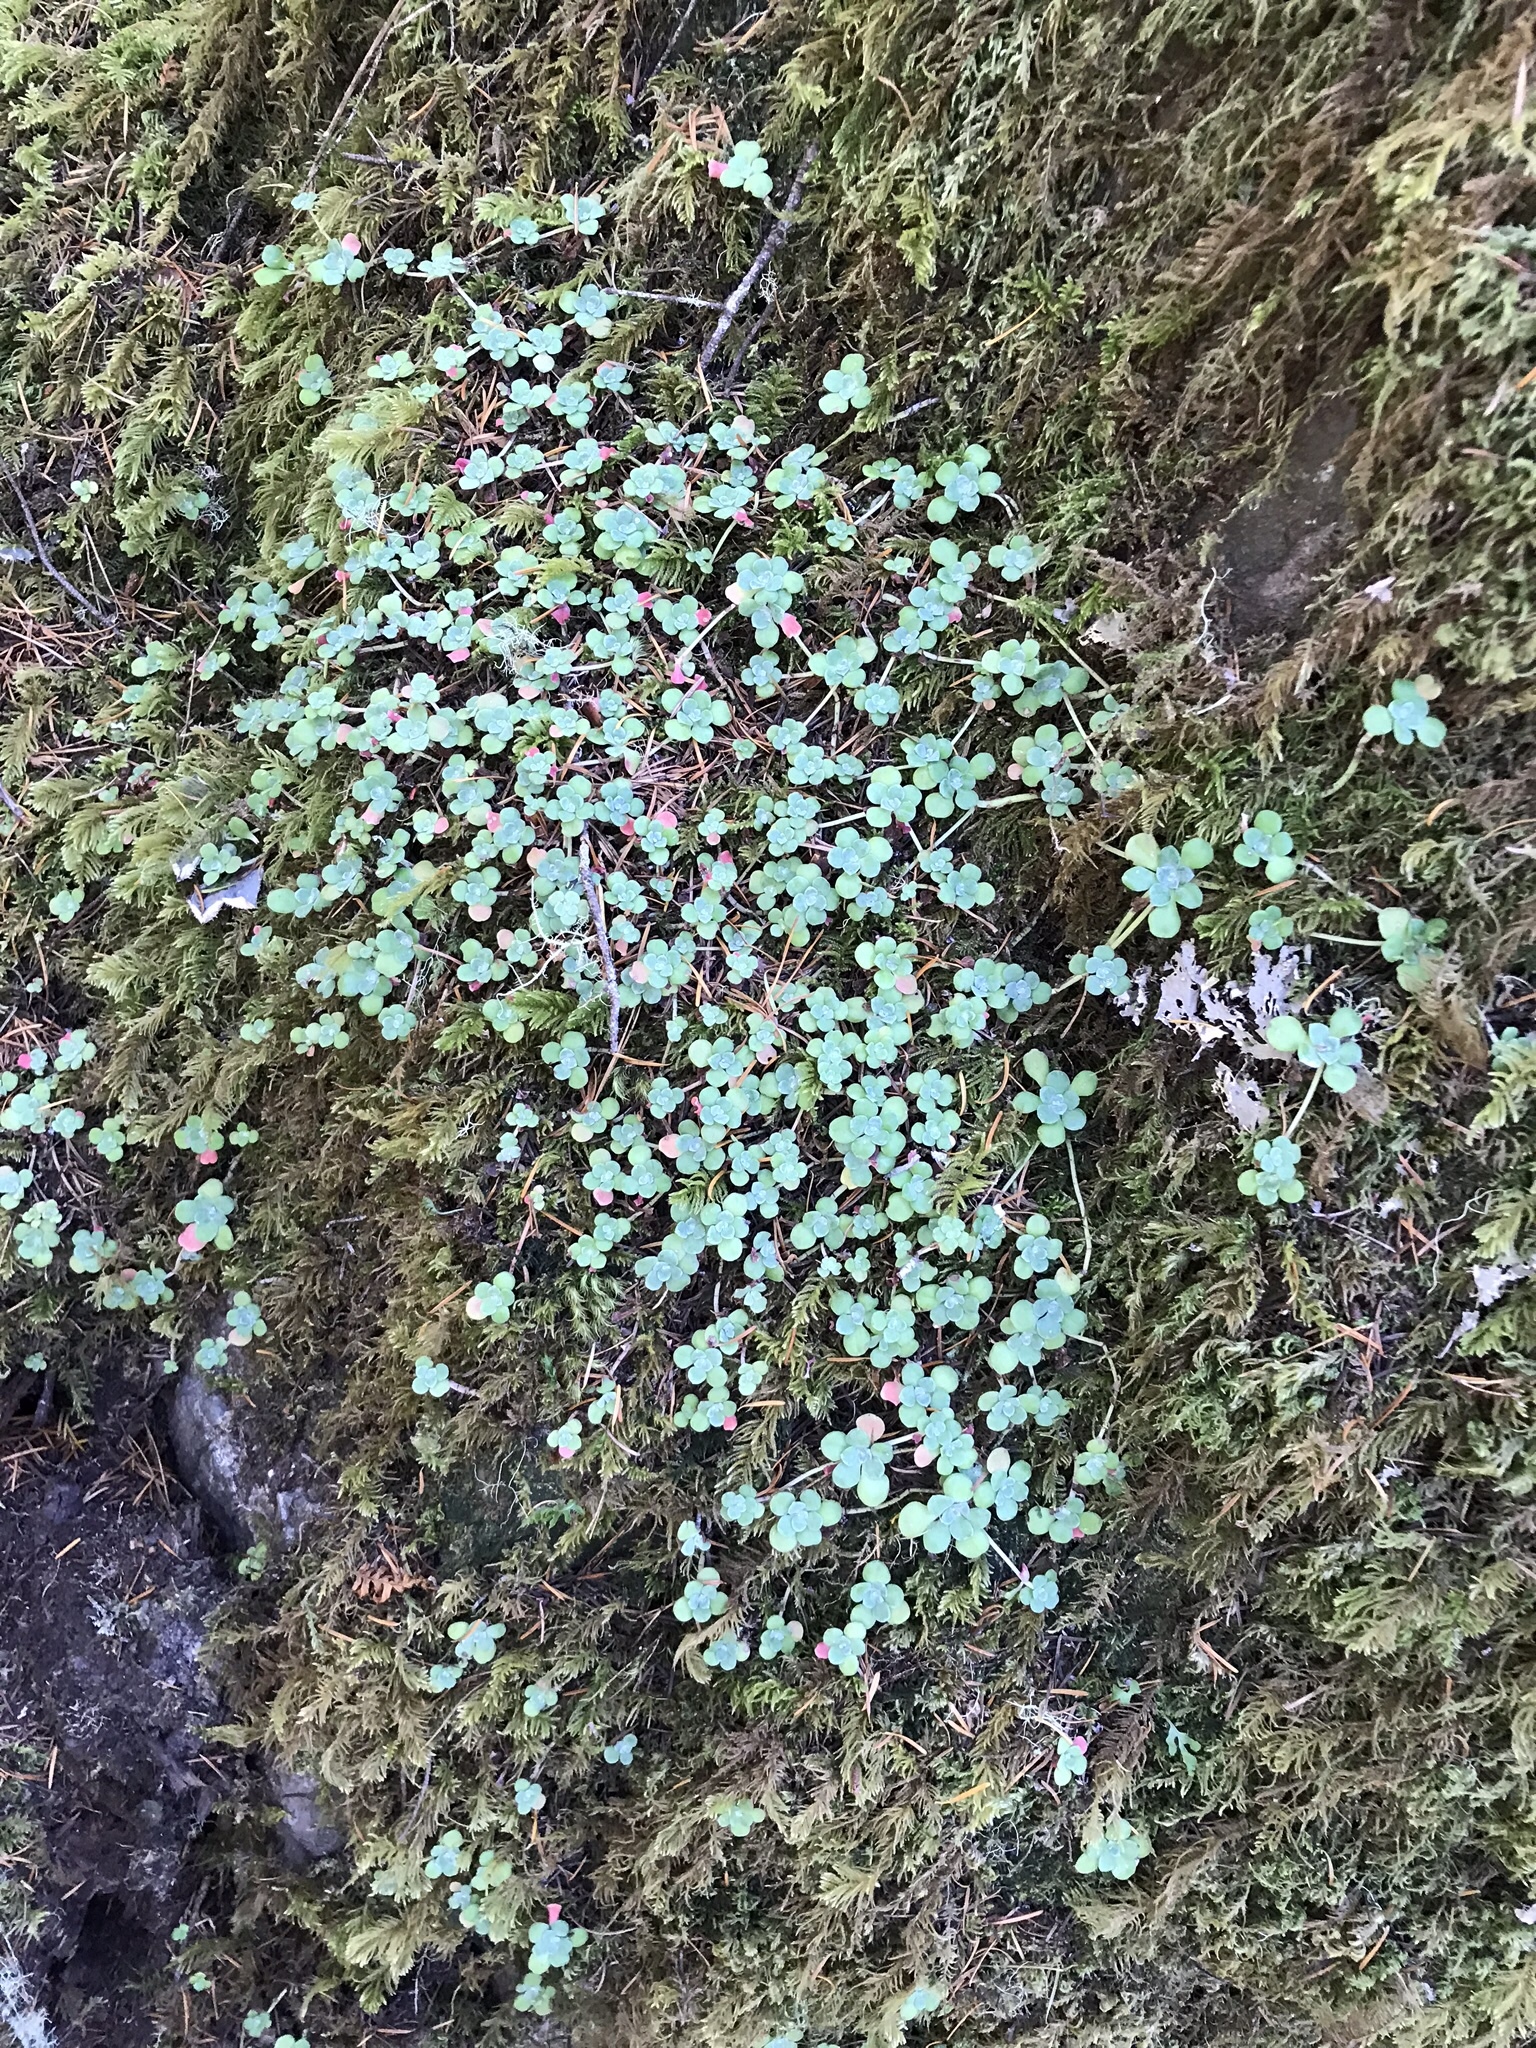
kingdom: Plantae
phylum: Tracheophyta
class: Magnoliopsida
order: Saxifragales
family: Crassulaceae
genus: Sedum
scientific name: Sedum spathulifolium
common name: Colorado stonecrop
